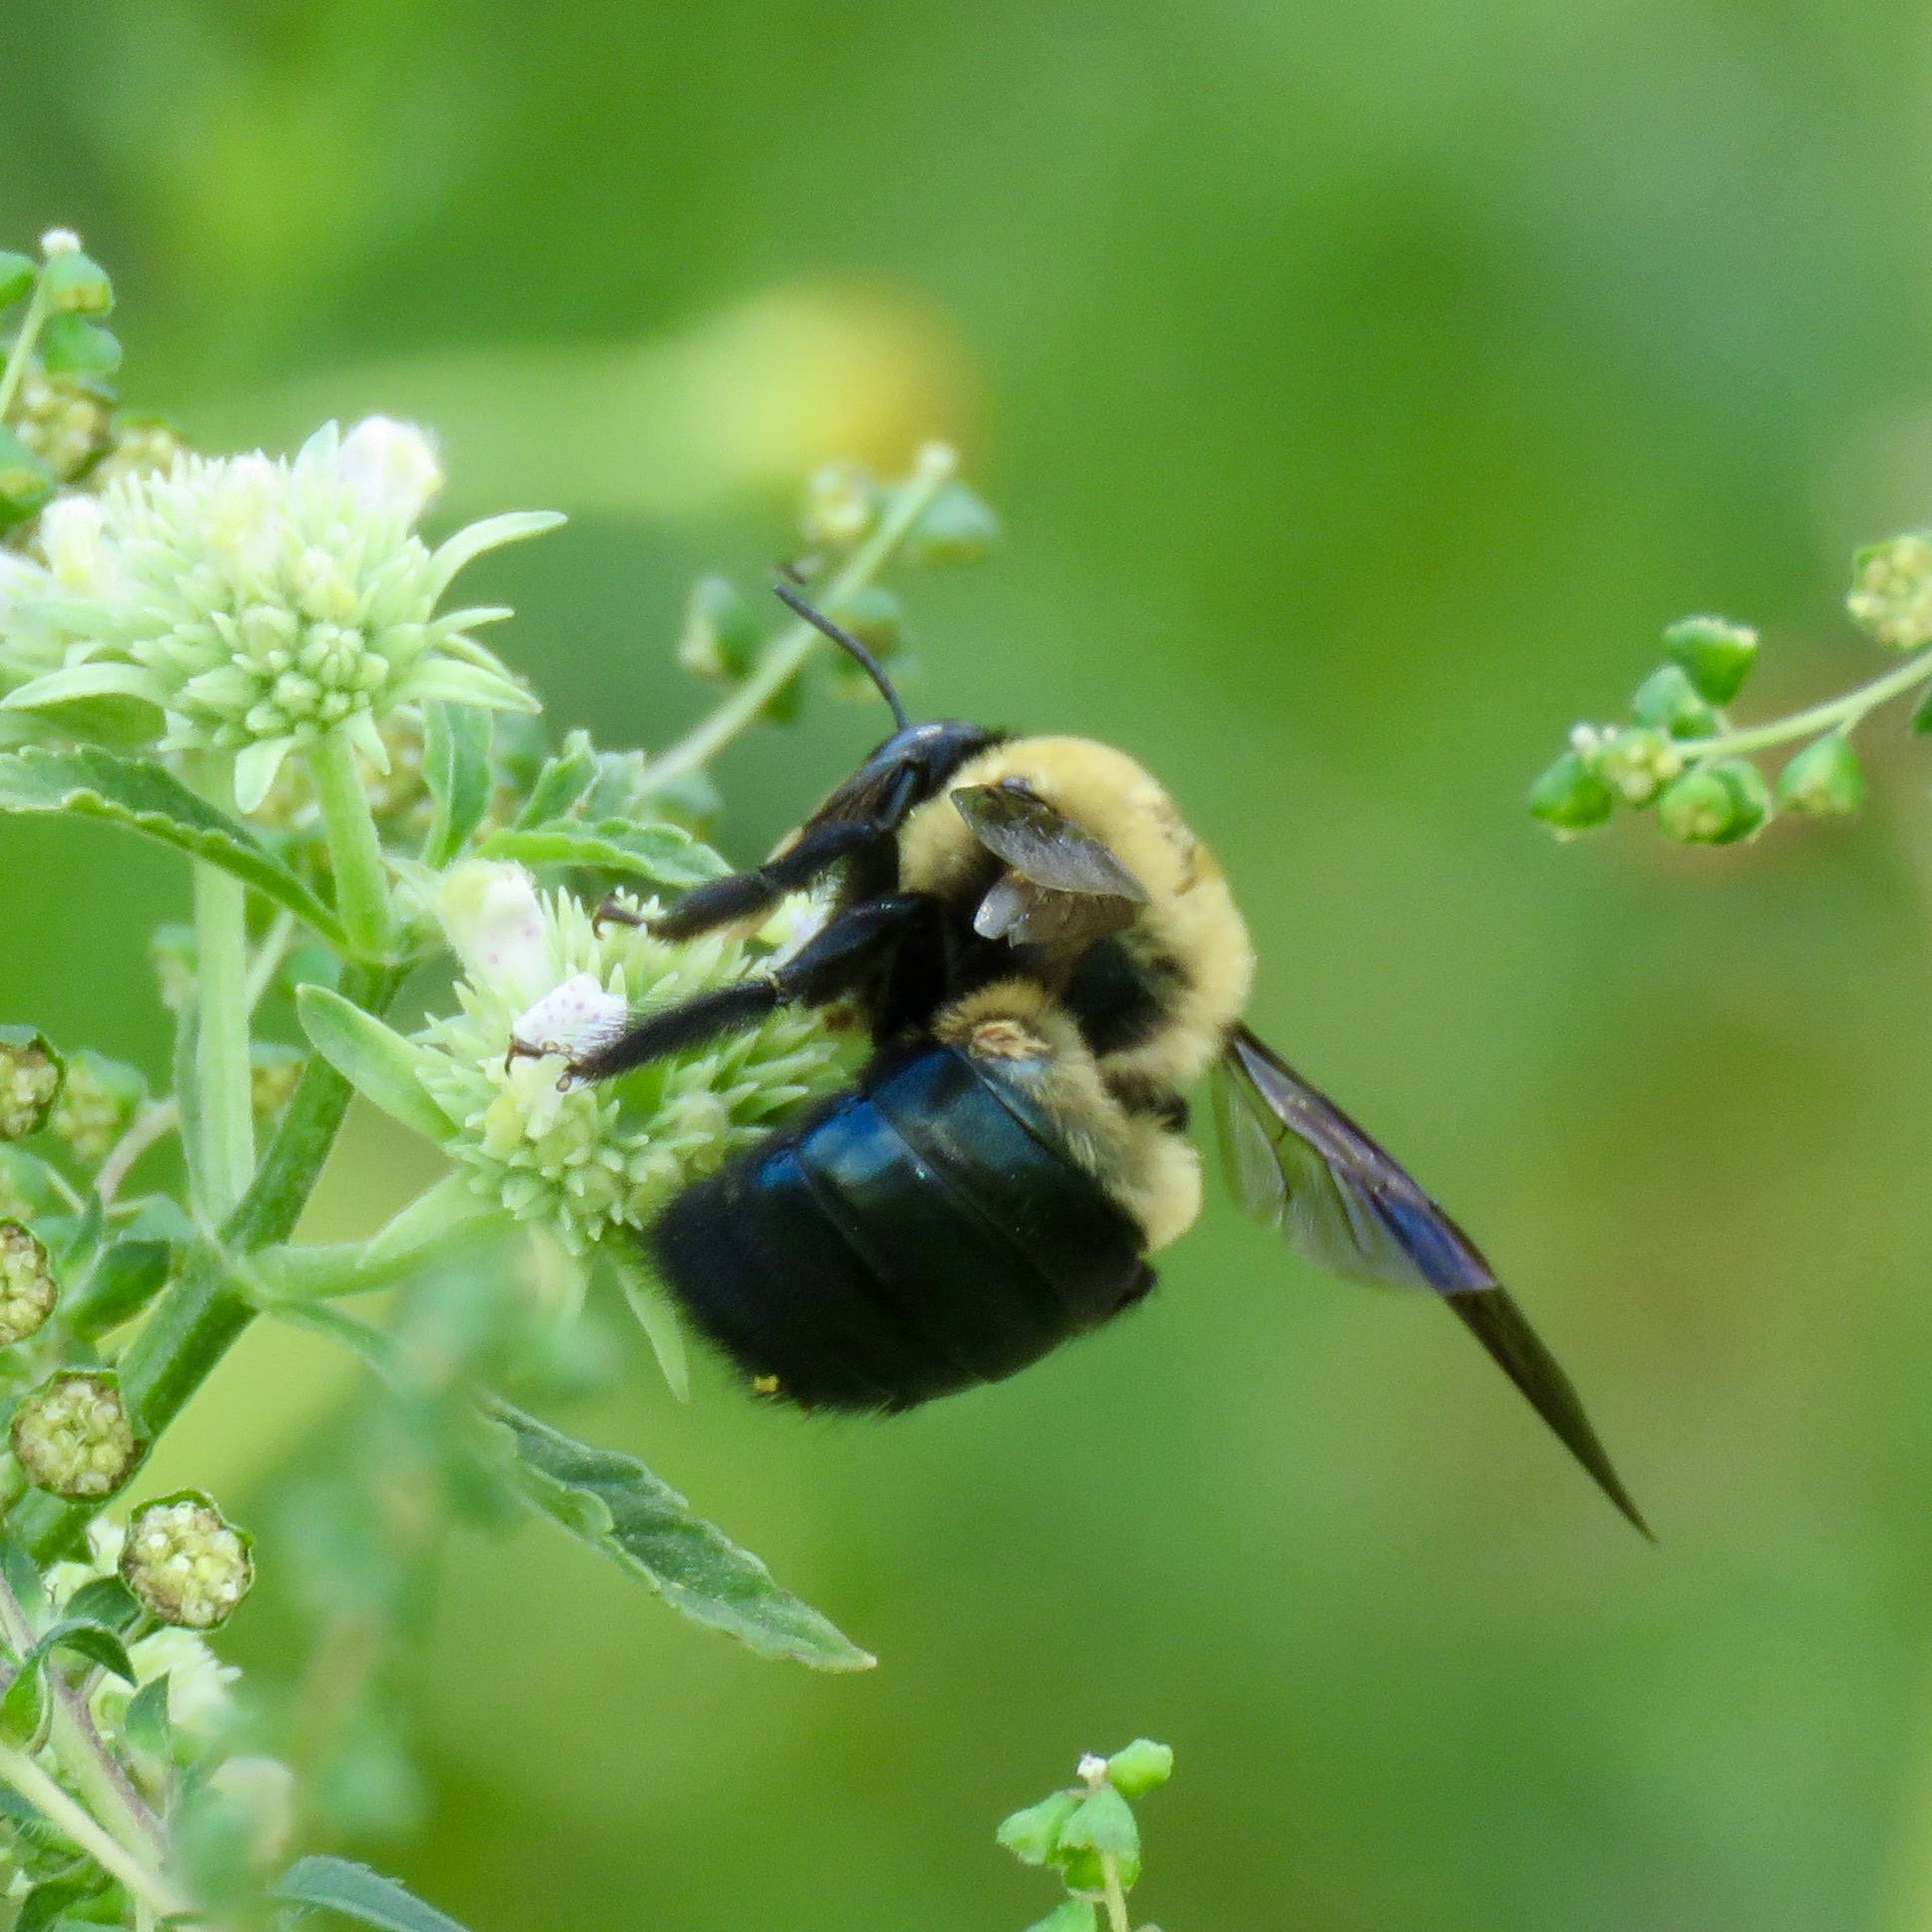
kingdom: Animalia
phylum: Arthropoda
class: Insecta
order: Hymenoptera
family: Apidae
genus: Xylocopa
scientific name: Xylocopa virginica
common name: Carpenter bee
